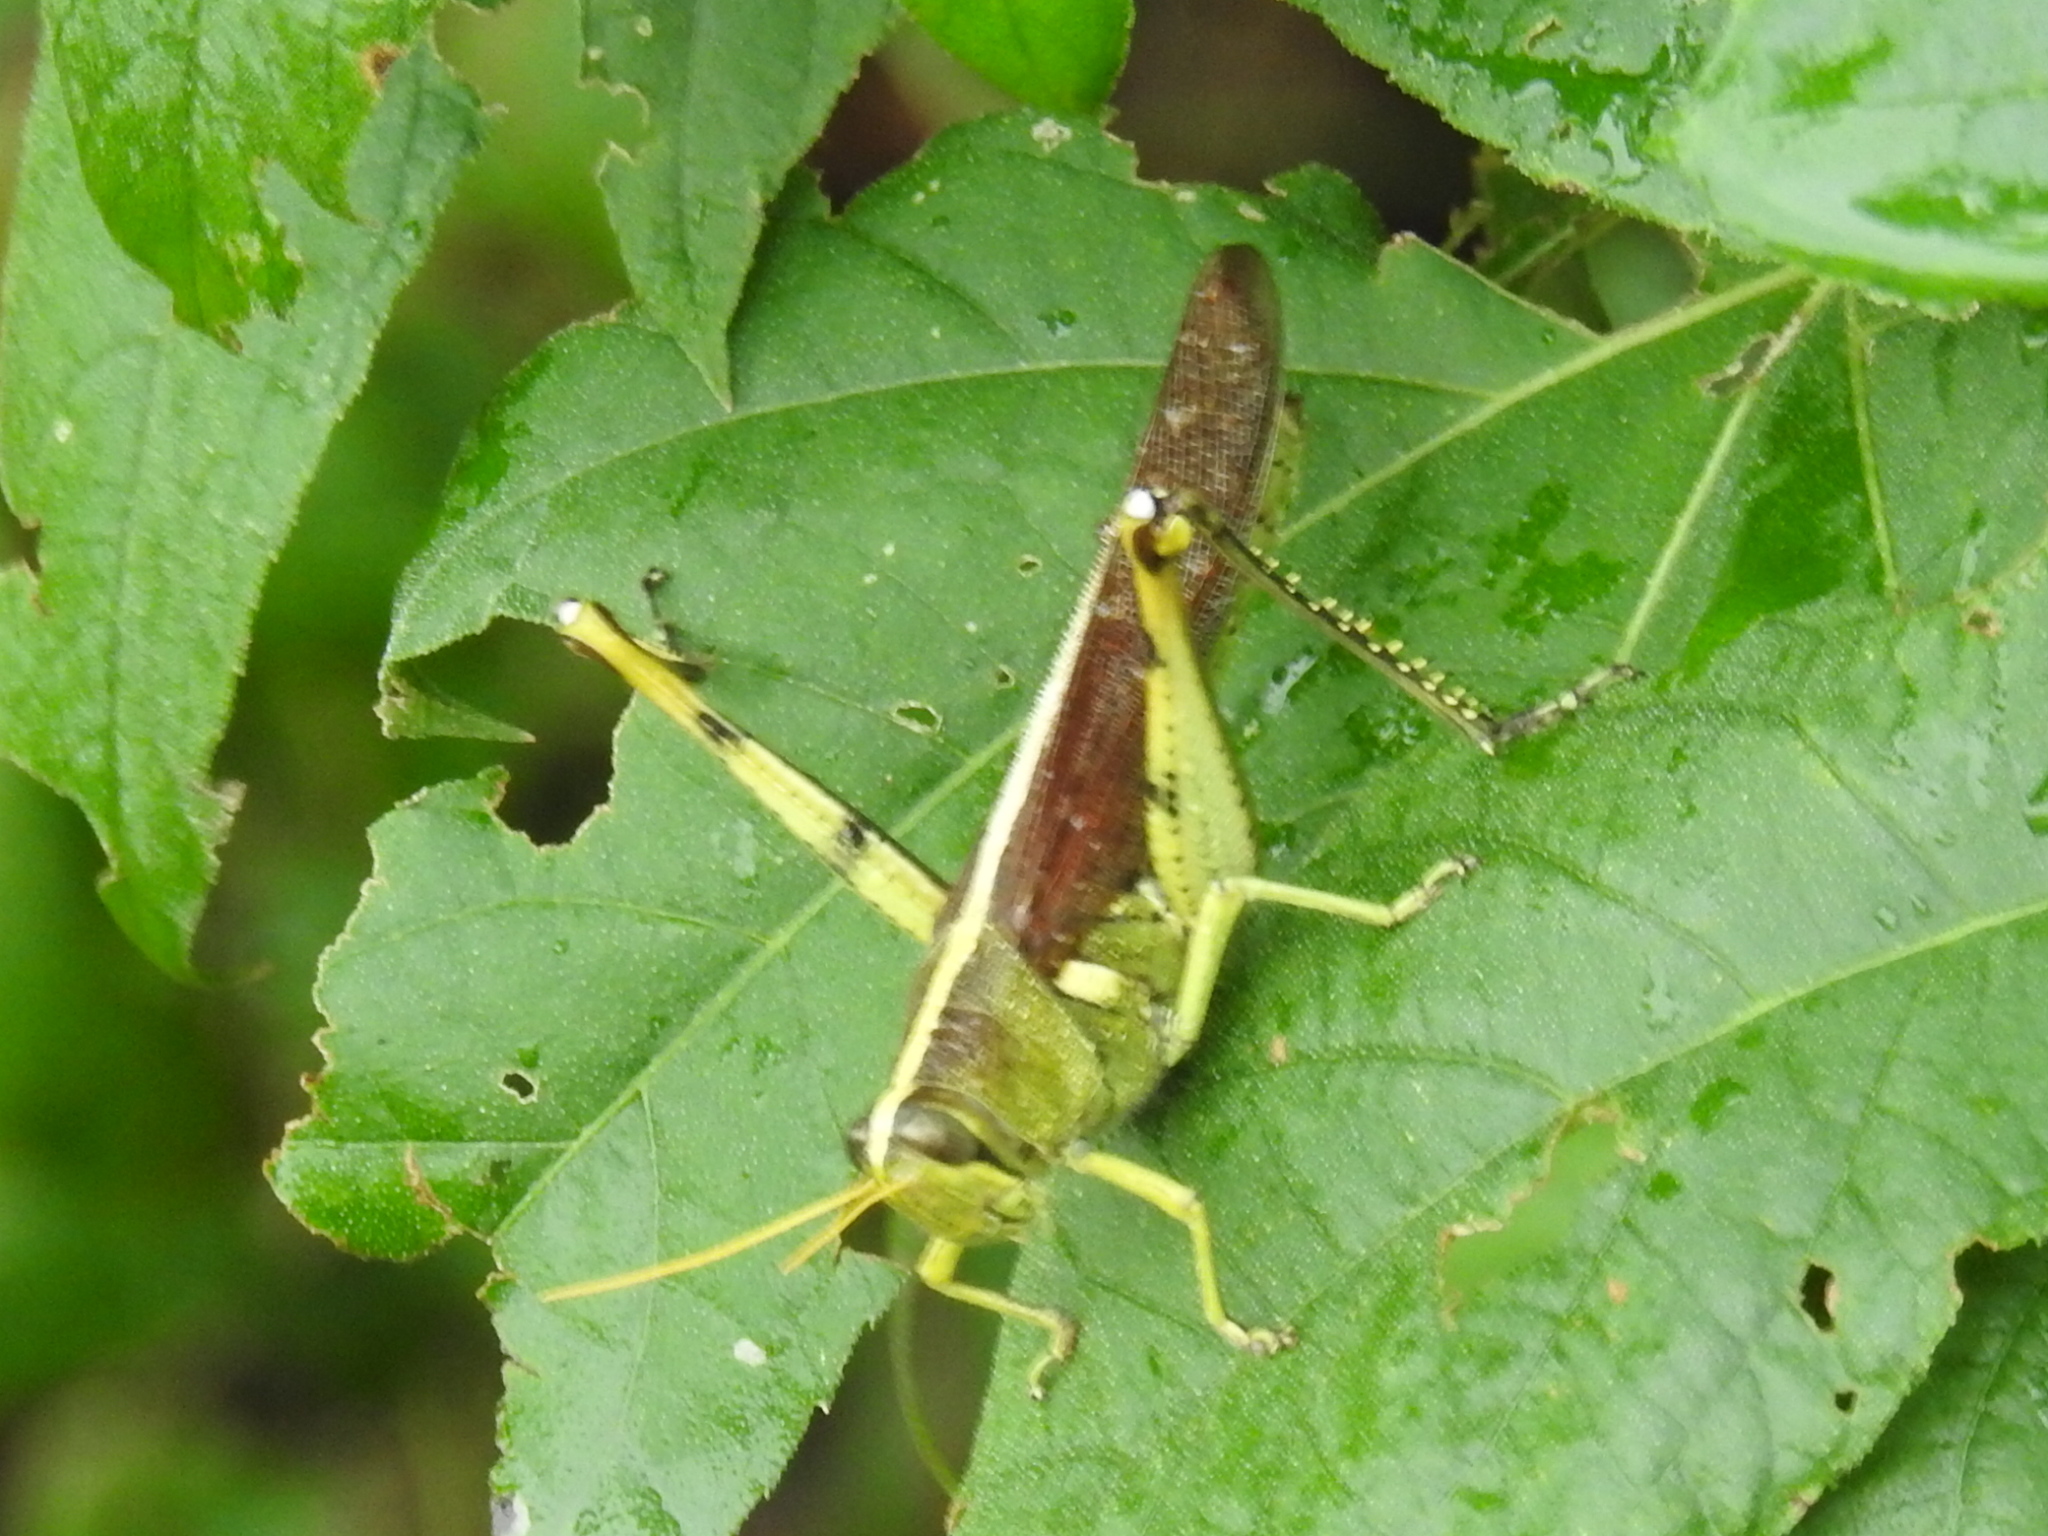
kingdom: Animalia
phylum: Arthropoda
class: Insecta
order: Orthoptera
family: Acrididae
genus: Schistocerca
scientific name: Schistocerca obscura
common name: Obscure bird grasshopper
